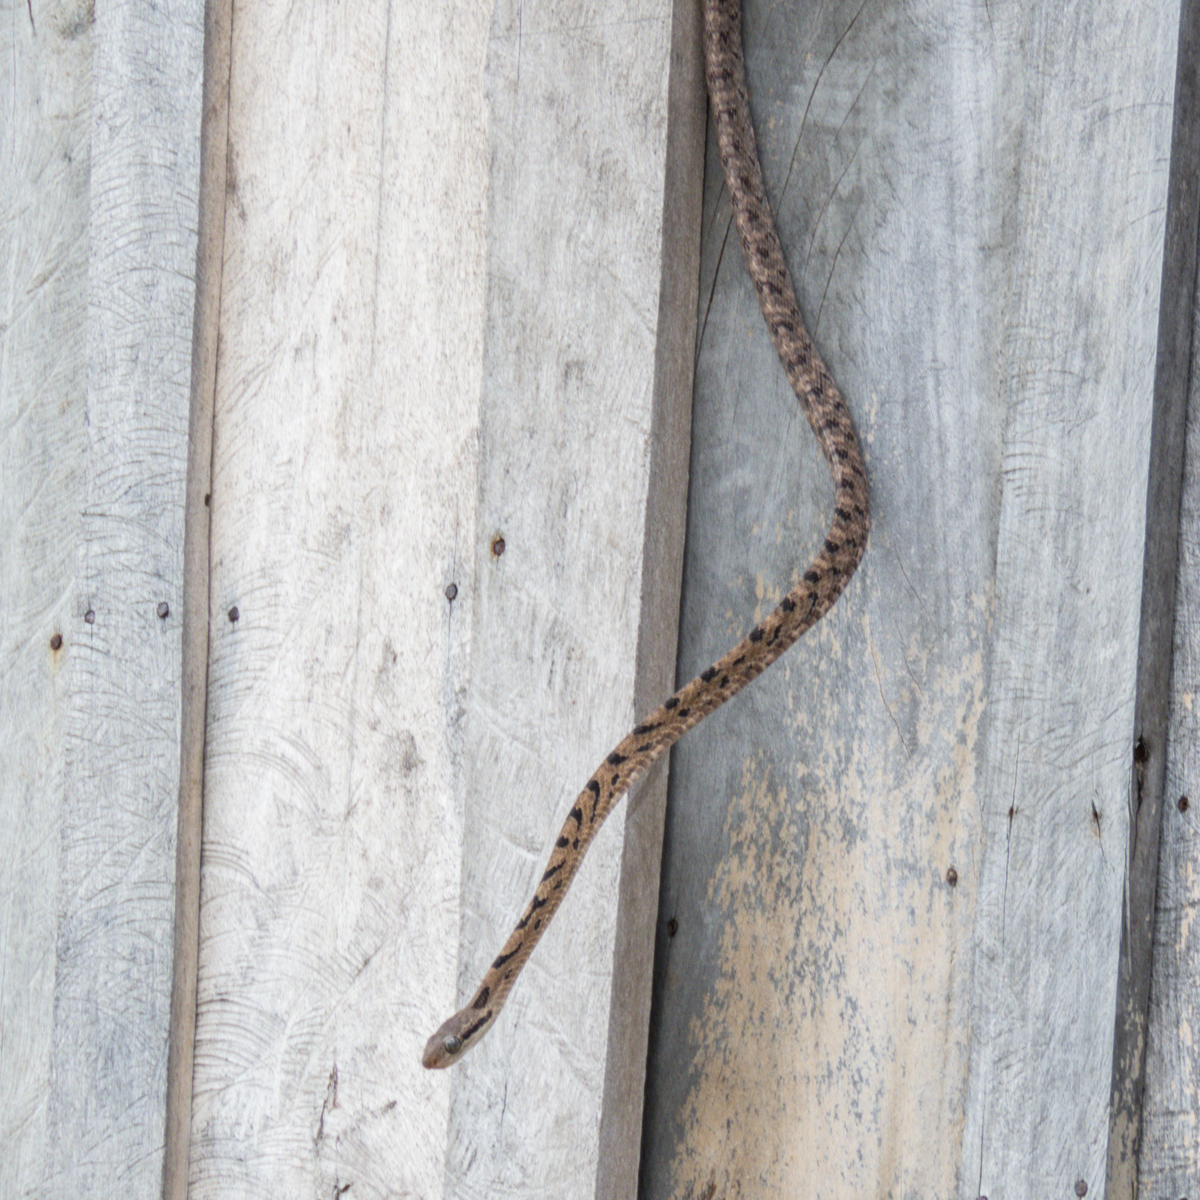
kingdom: Animalia
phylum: Chordata
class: Squamata
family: Colubridae
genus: Boiga
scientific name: Boiga siamensis
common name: Eyed cat snake
